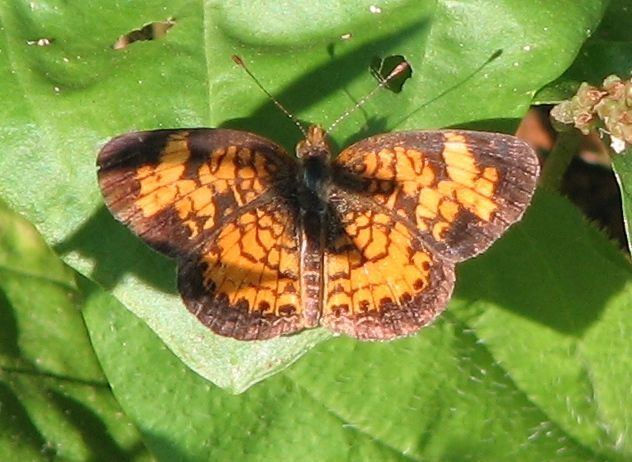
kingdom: Animalia
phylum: Arthropoda
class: Insecta
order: Lepidoptera
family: Nymphalidae
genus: Phyciodes
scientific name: Phyciodes tharos
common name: Pearl crescent
